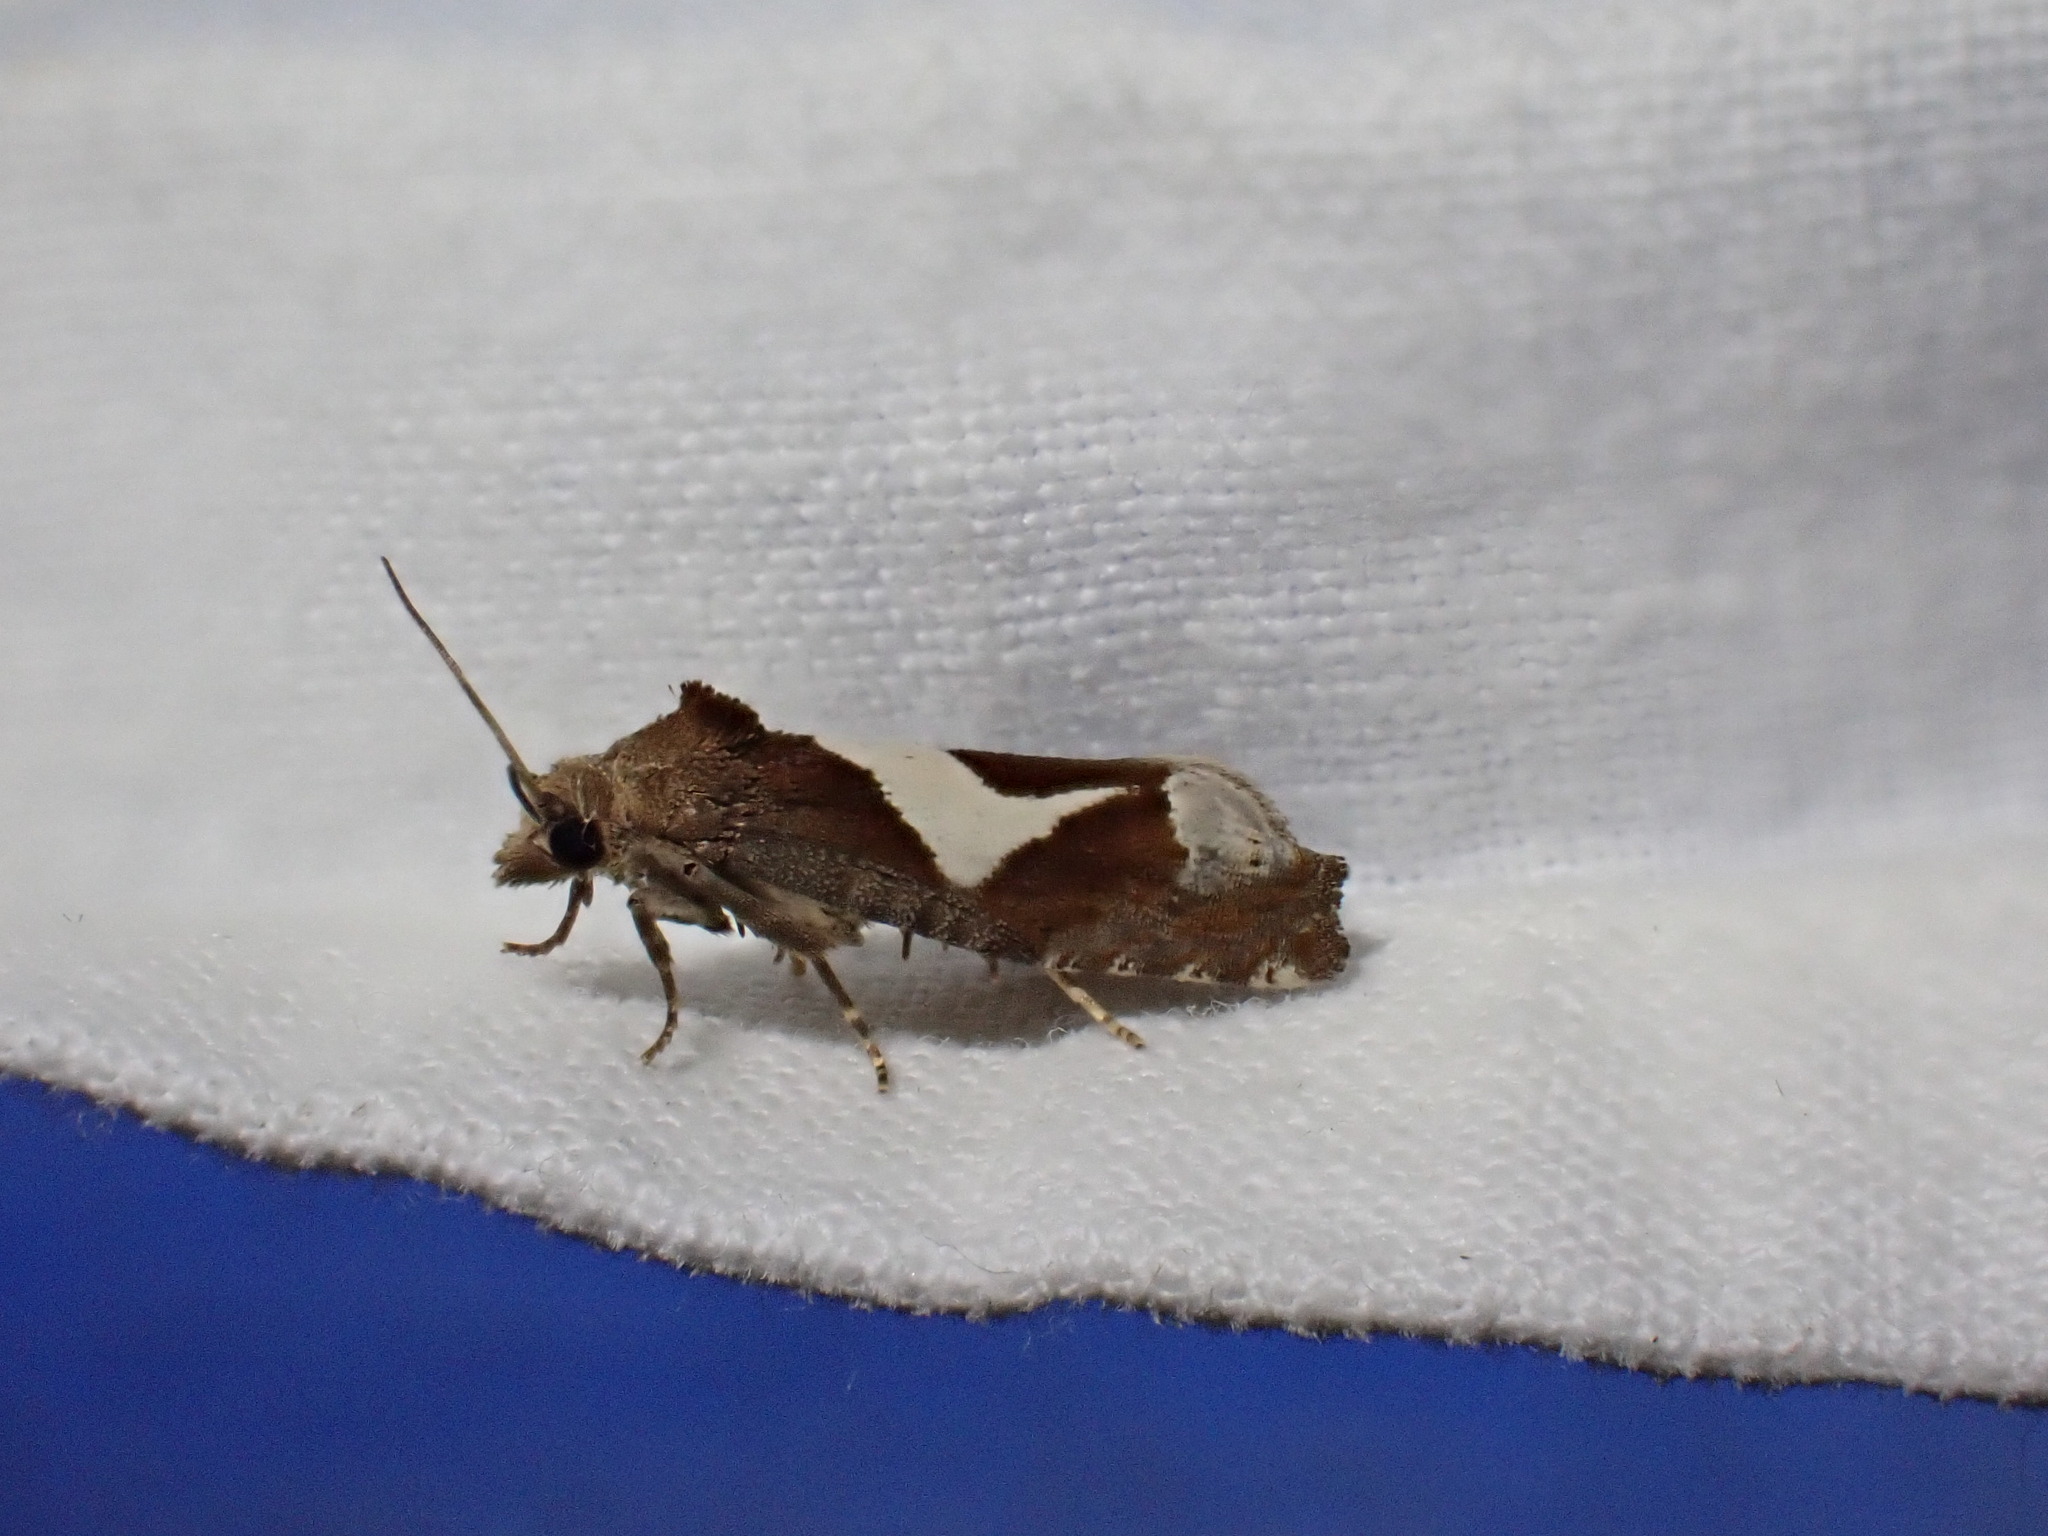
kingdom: Animalia
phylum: Arthropoda
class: Insecta
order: Lepidoptera
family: Tortricidae
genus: Epiblema
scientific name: Epiblema foenella
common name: White-foot bell
